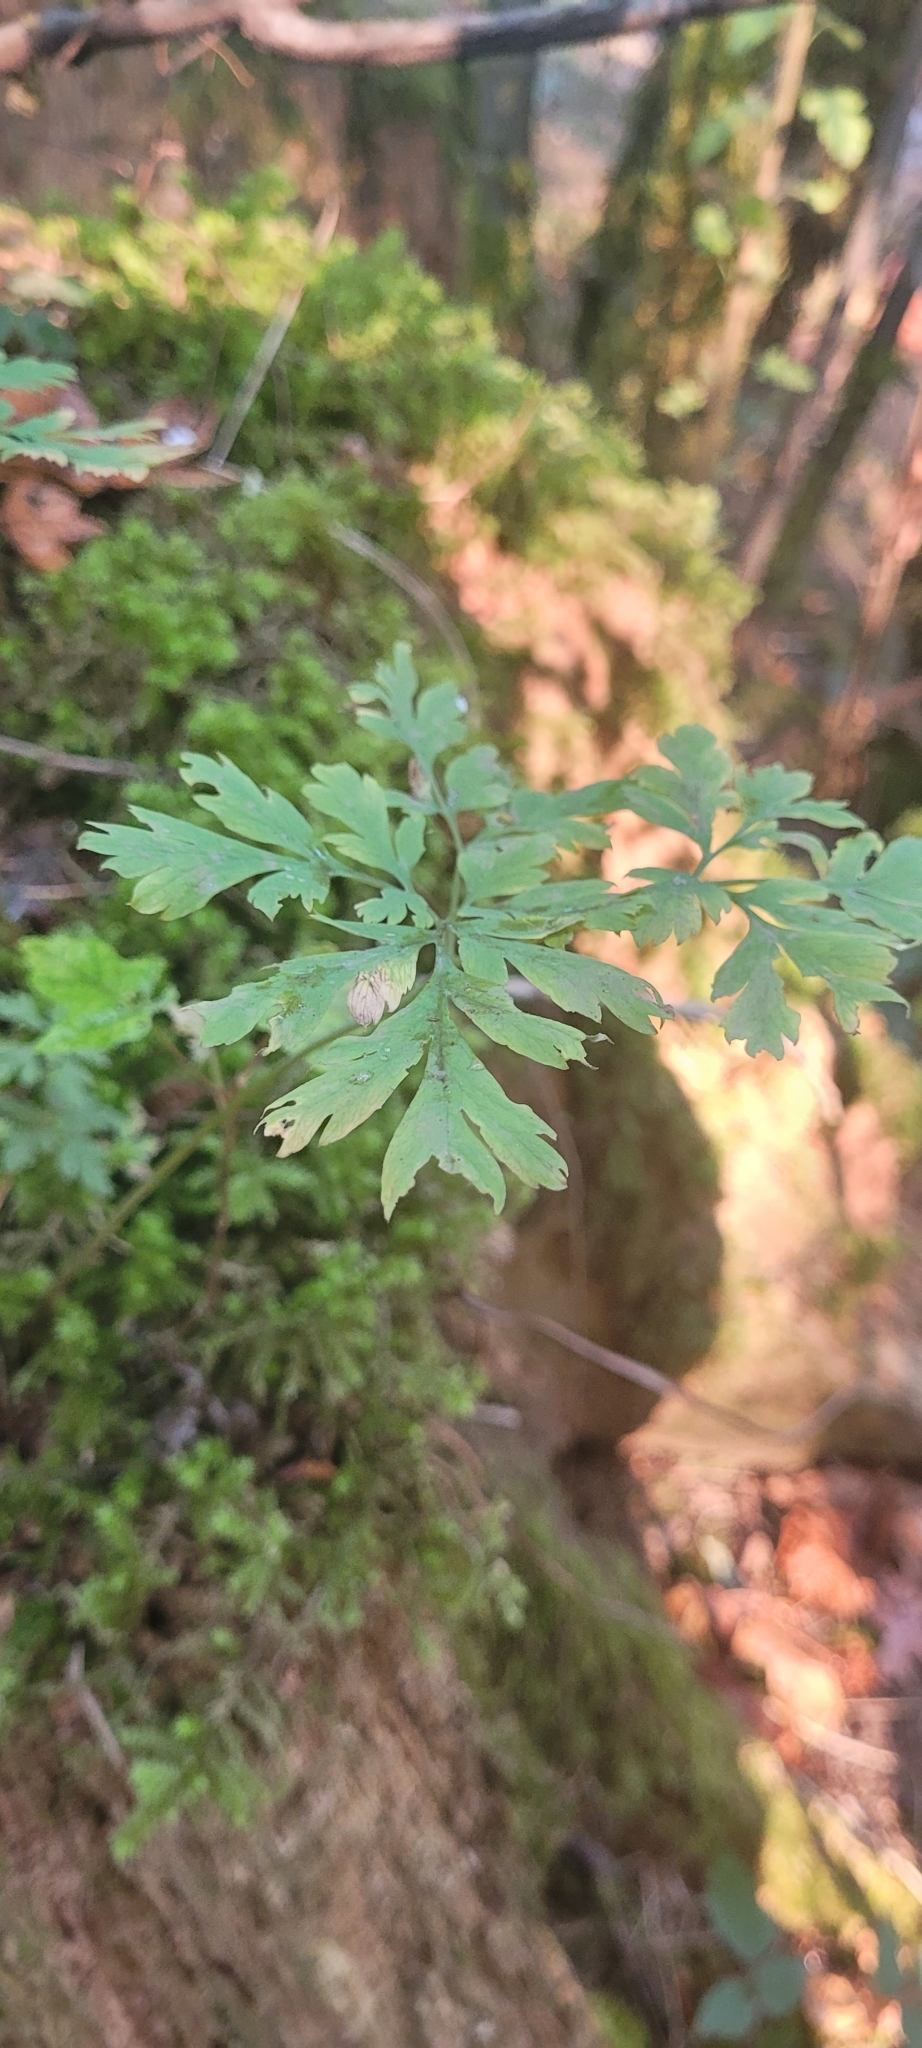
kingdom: Plantae
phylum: Tracheophyta
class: Magnoliopsida
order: Ranunculales
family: Papaveraceae
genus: Dicentra
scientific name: Dicentra formosa
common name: Bleeding-heart
